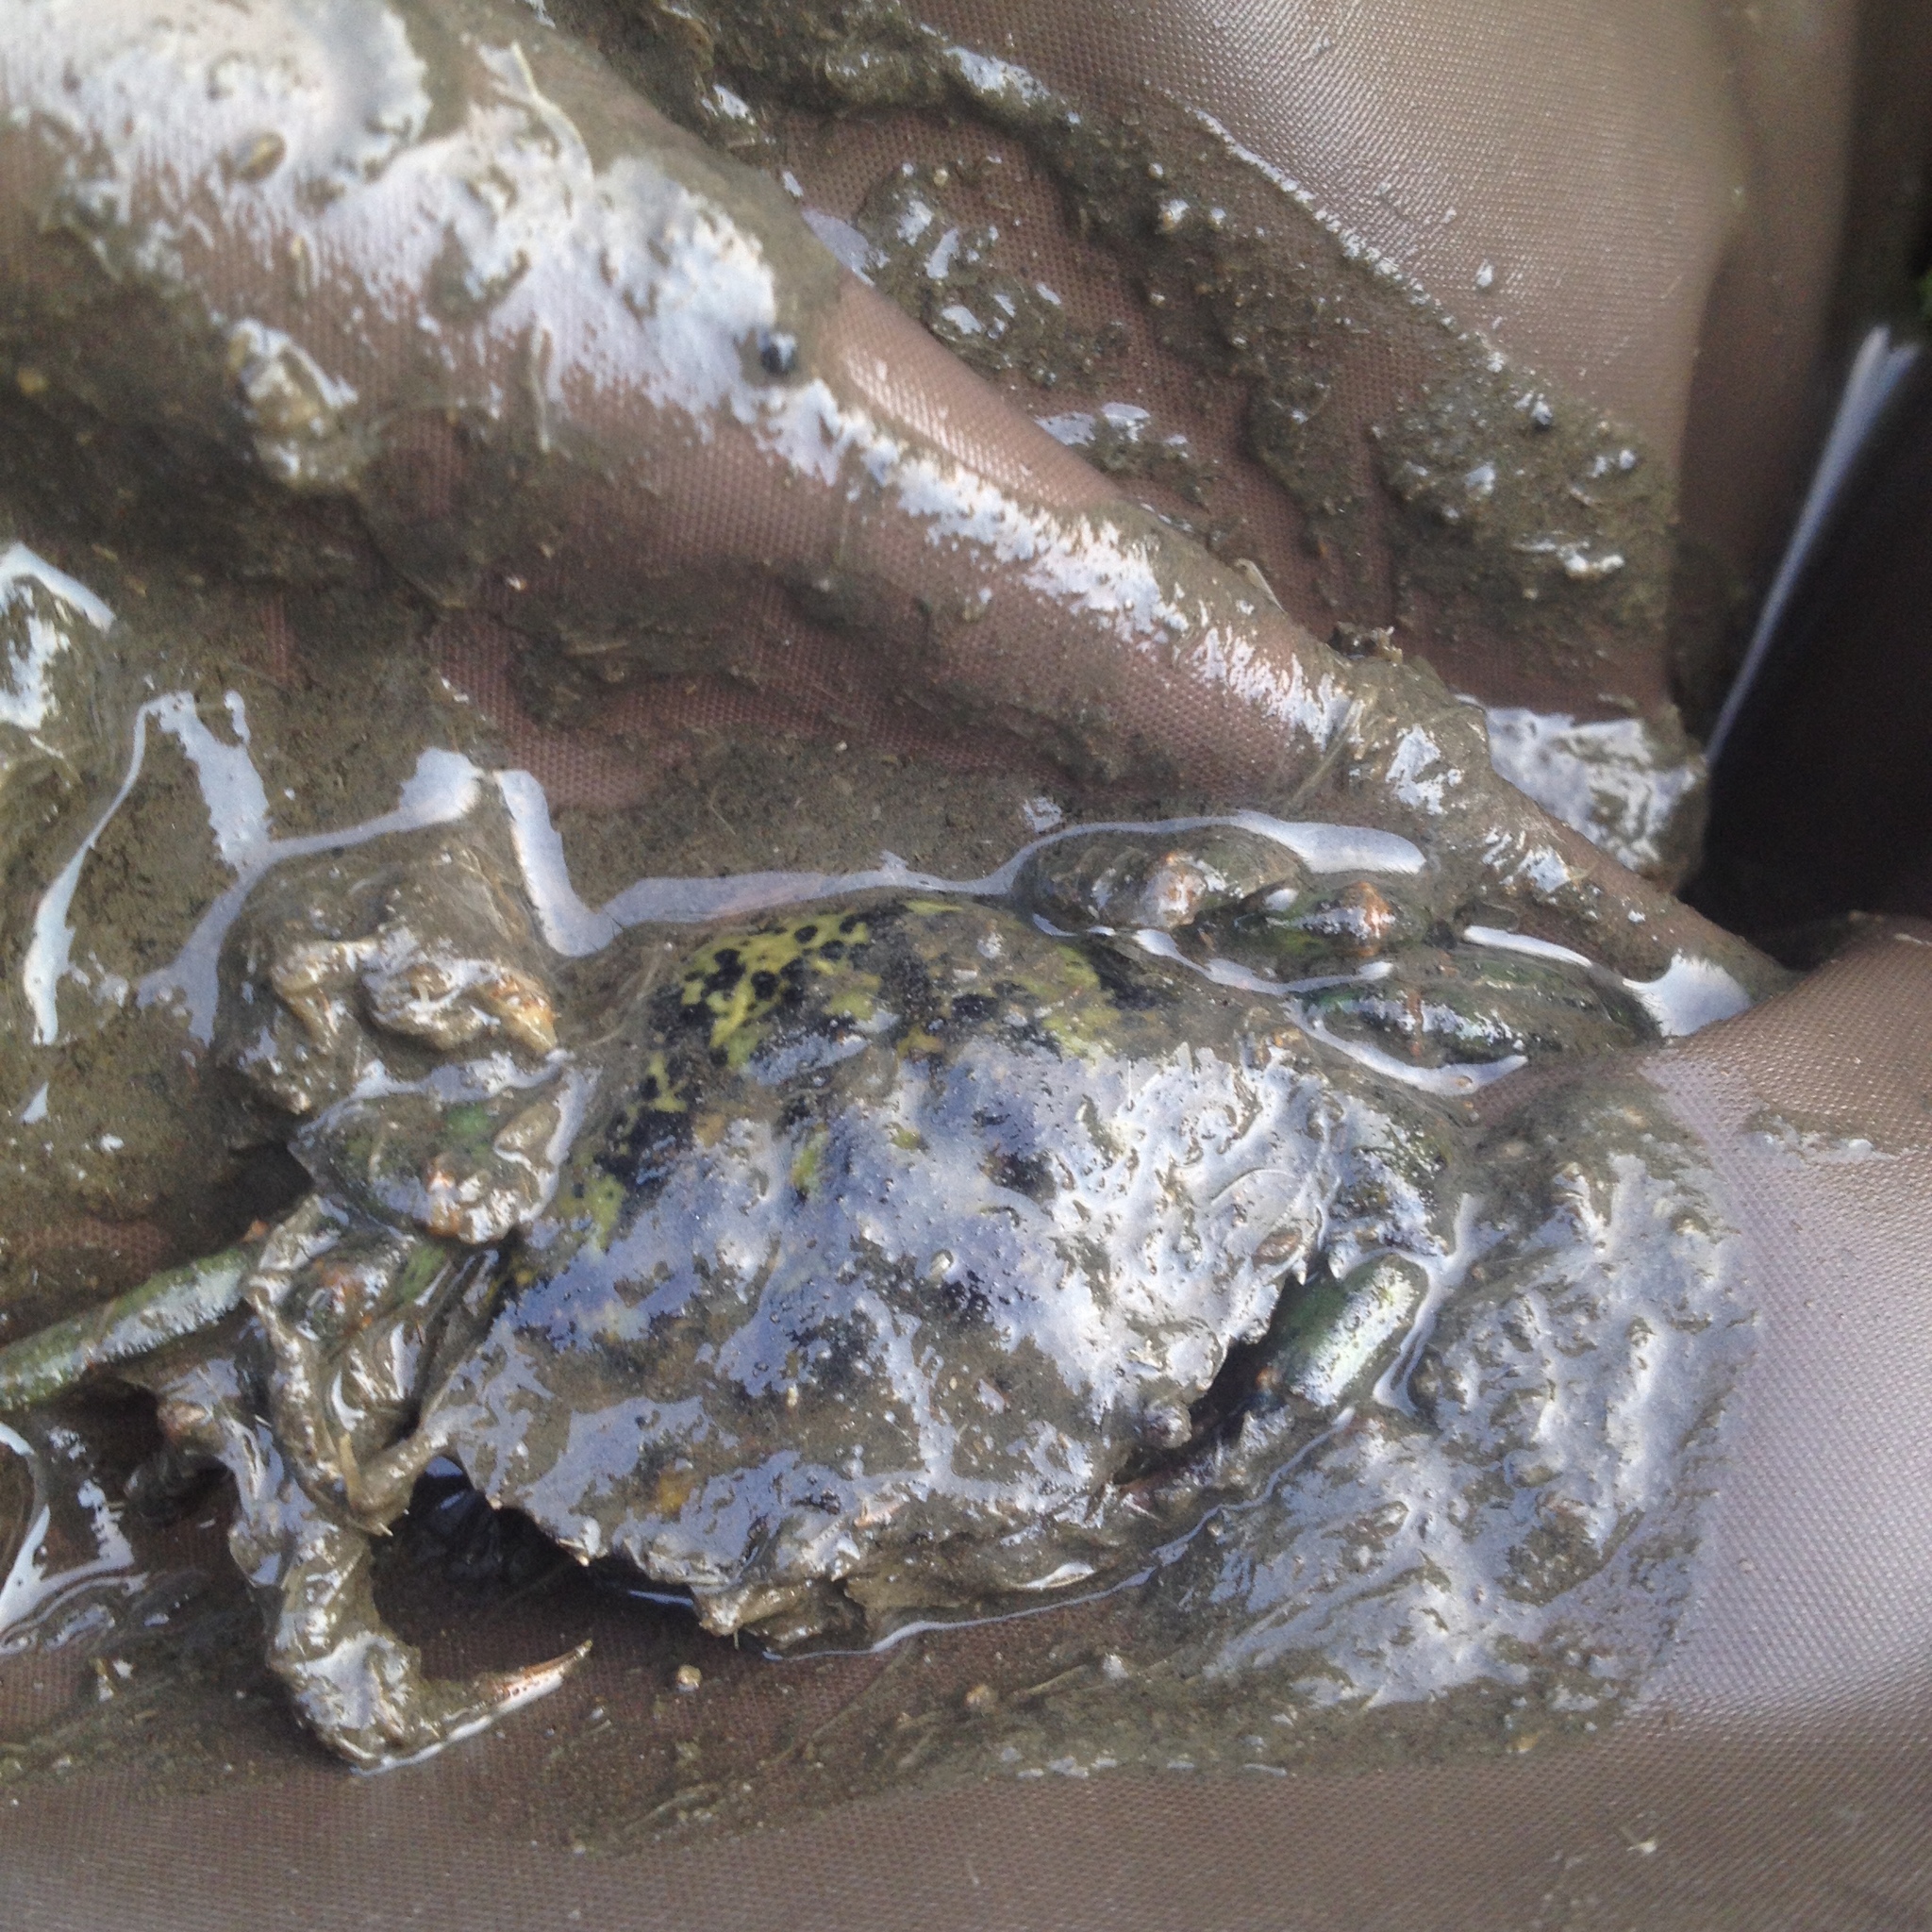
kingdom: Animalia
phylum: Arthropoda
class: Malacostraca
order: Decapoda
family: Carcinidae
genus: Carcinus
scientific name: Carcinus maenas
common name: European green crab
